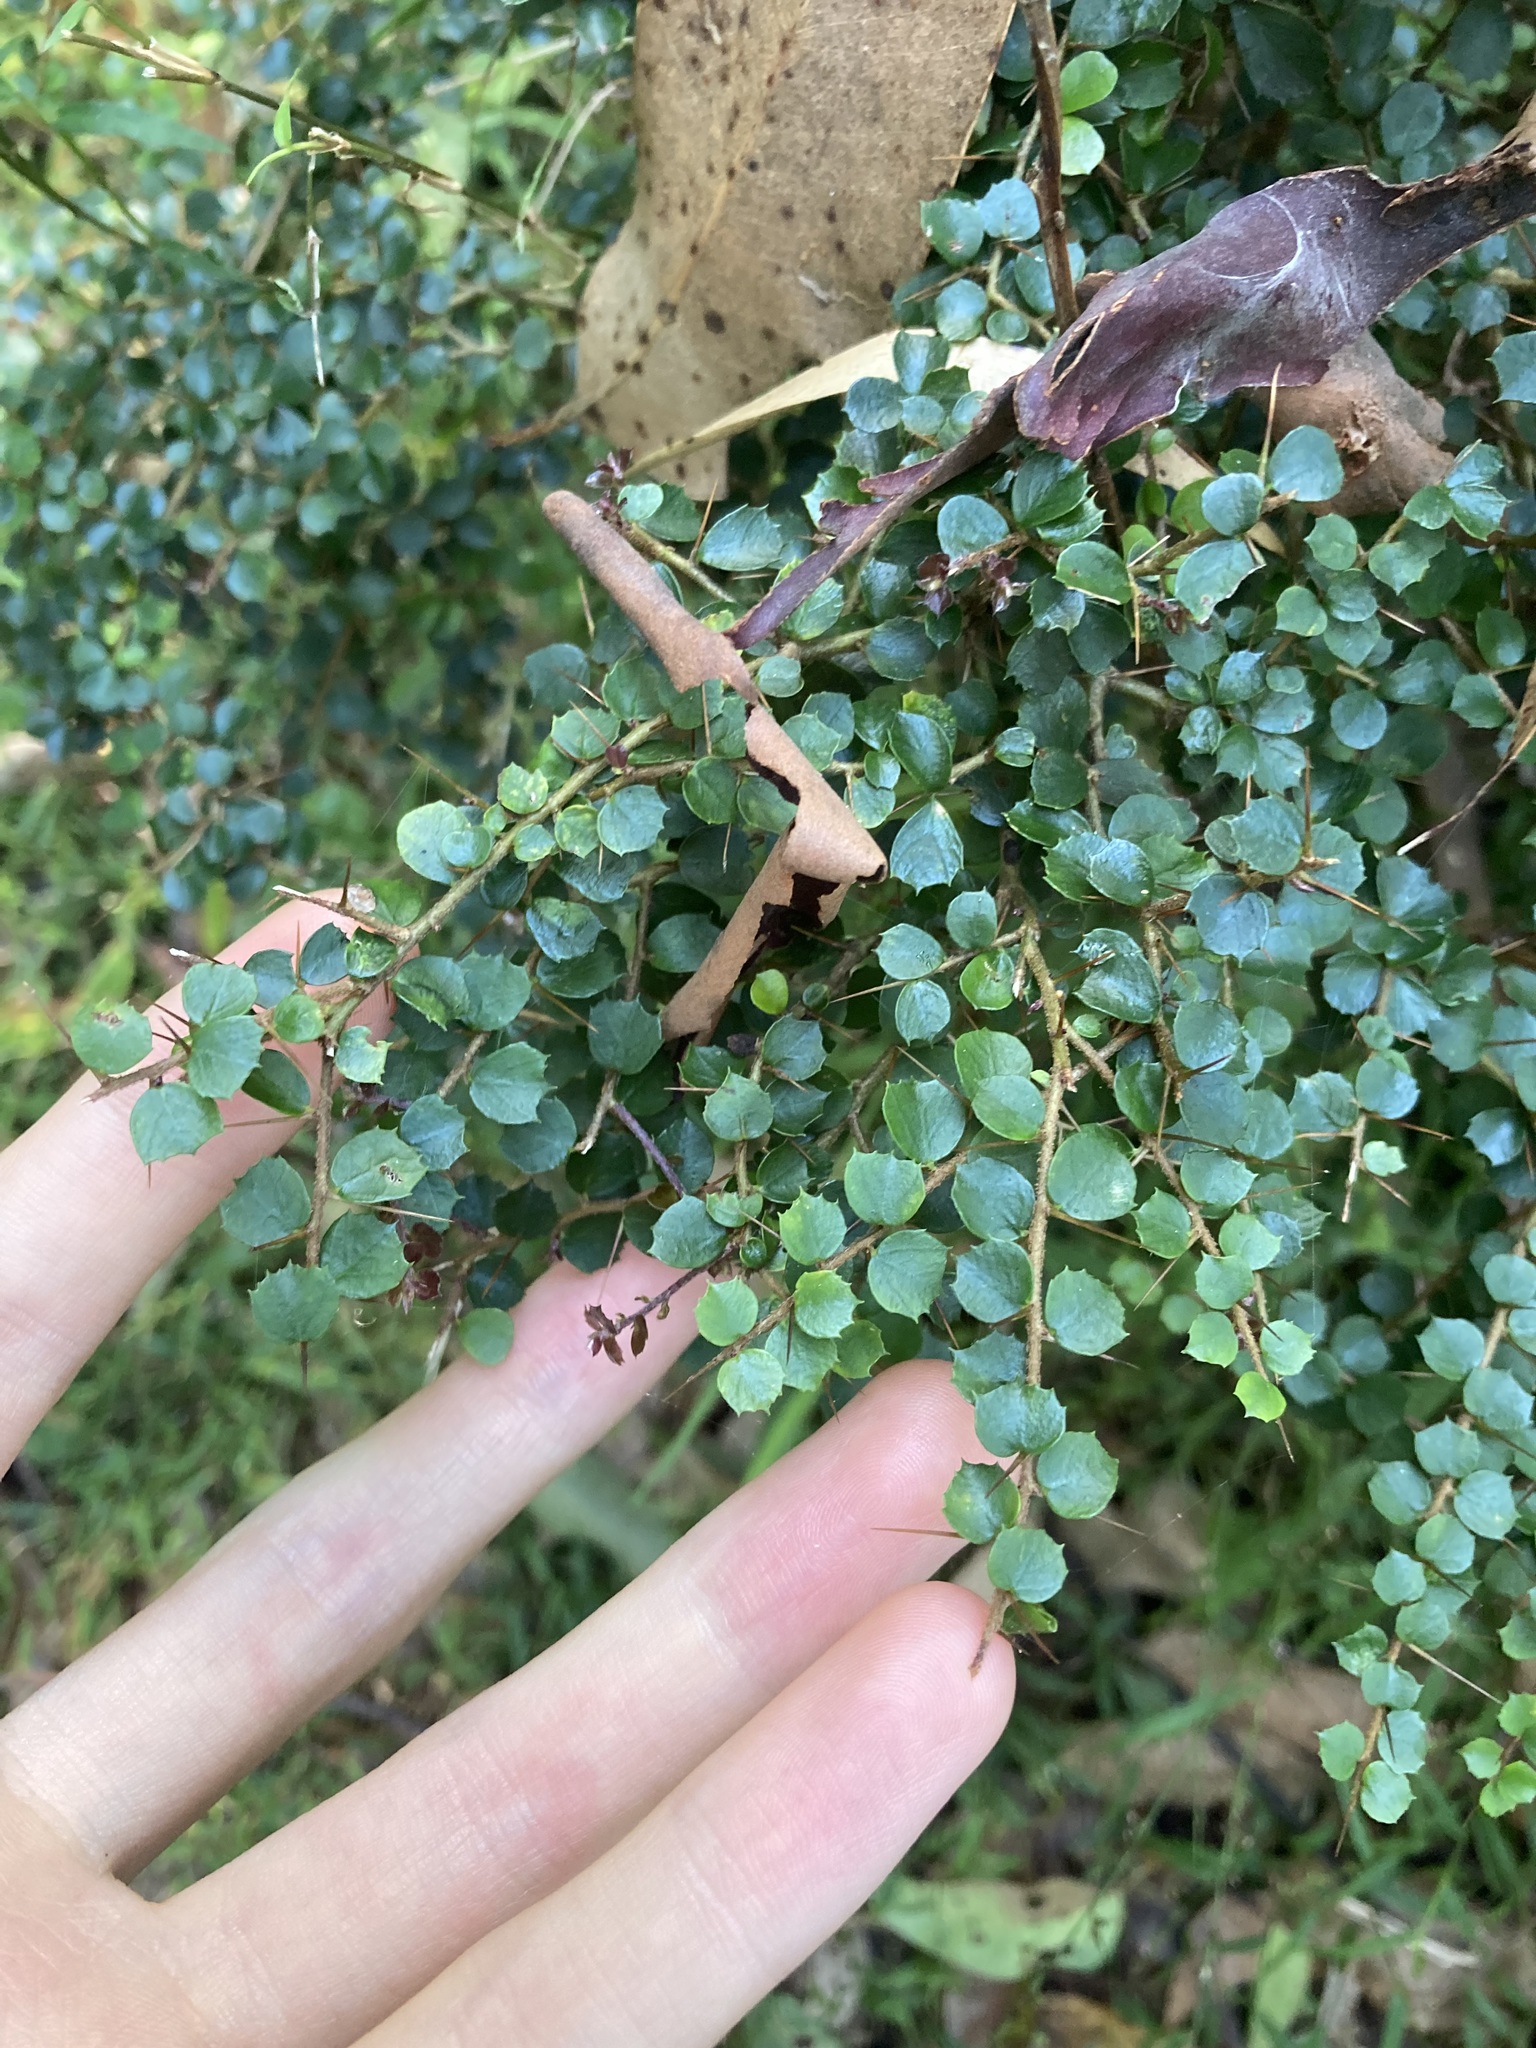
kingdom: Plantae
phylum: Tracheophyta
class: Magnoliopsida
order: Apiales
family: Pittosporaceae
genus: Pittosporum
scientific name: Pittosporum multiflorum
